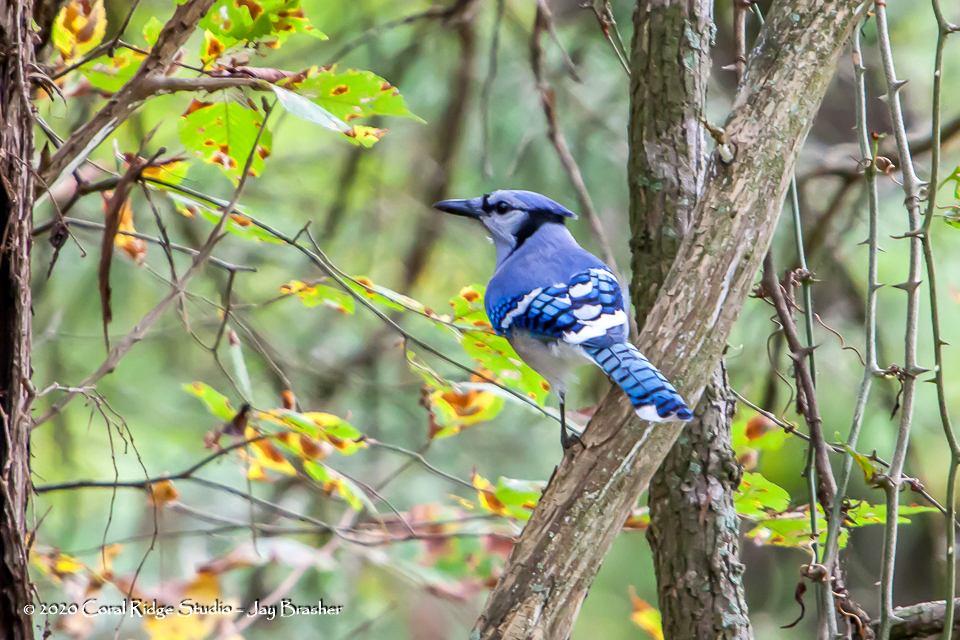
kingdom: Animalia
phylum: Chordata
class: Aves
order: Passeriformes
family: Corvidae
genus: Cyanocitta
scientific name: Cyanocitta cristata
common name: Blue jay
